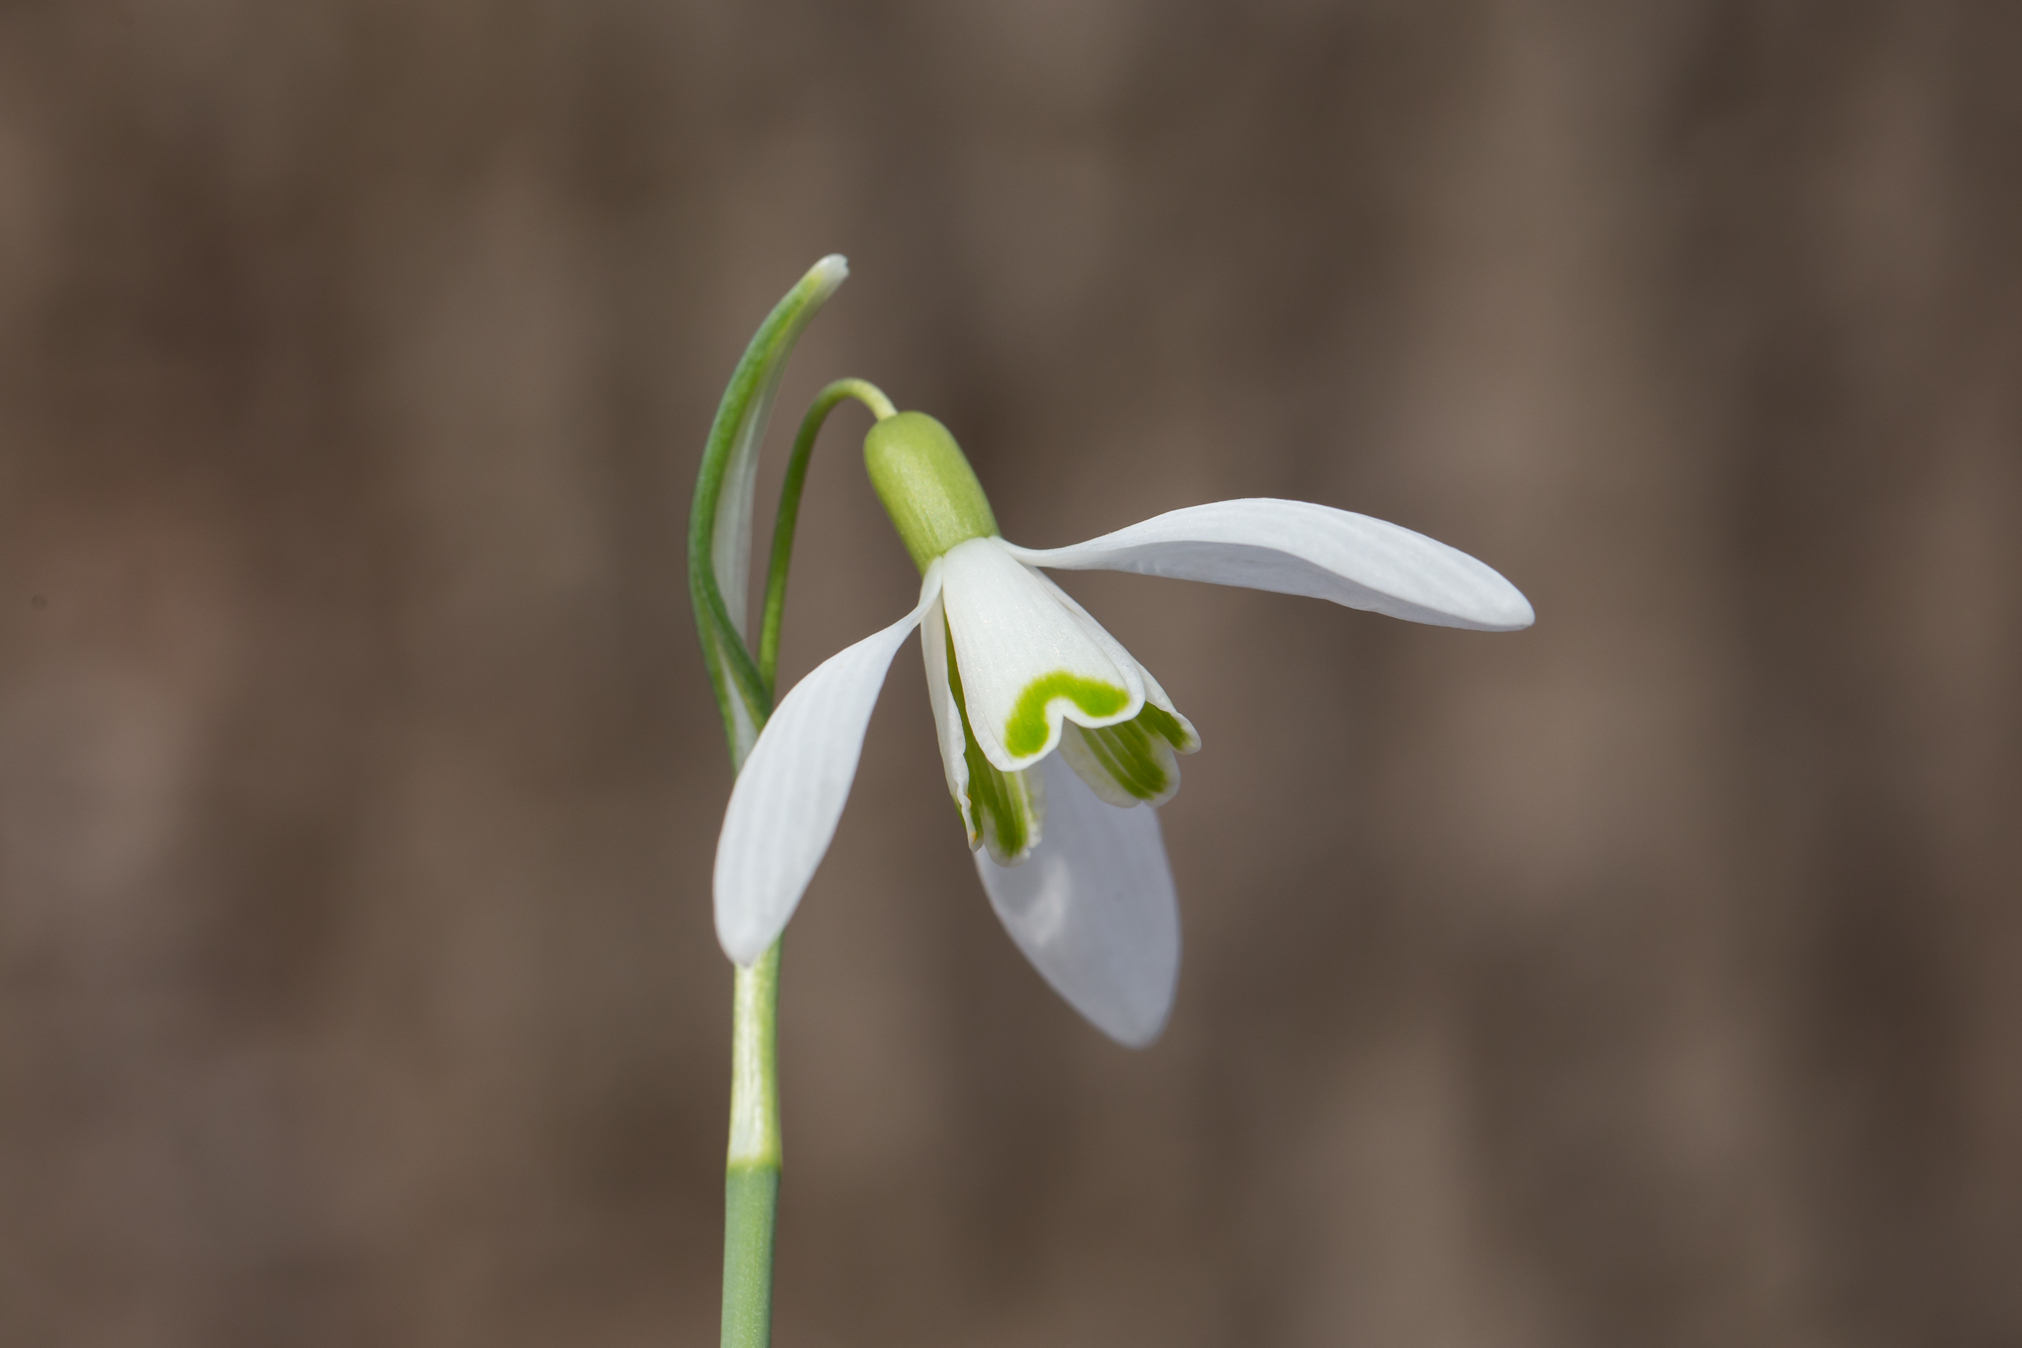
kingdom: Plantae
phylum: Tracheophyta
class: Liliopsida
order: Asparagales
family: Amaryllidaceae
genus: Galanthus
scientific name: Galanthus nivalis
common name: Snowdrop
